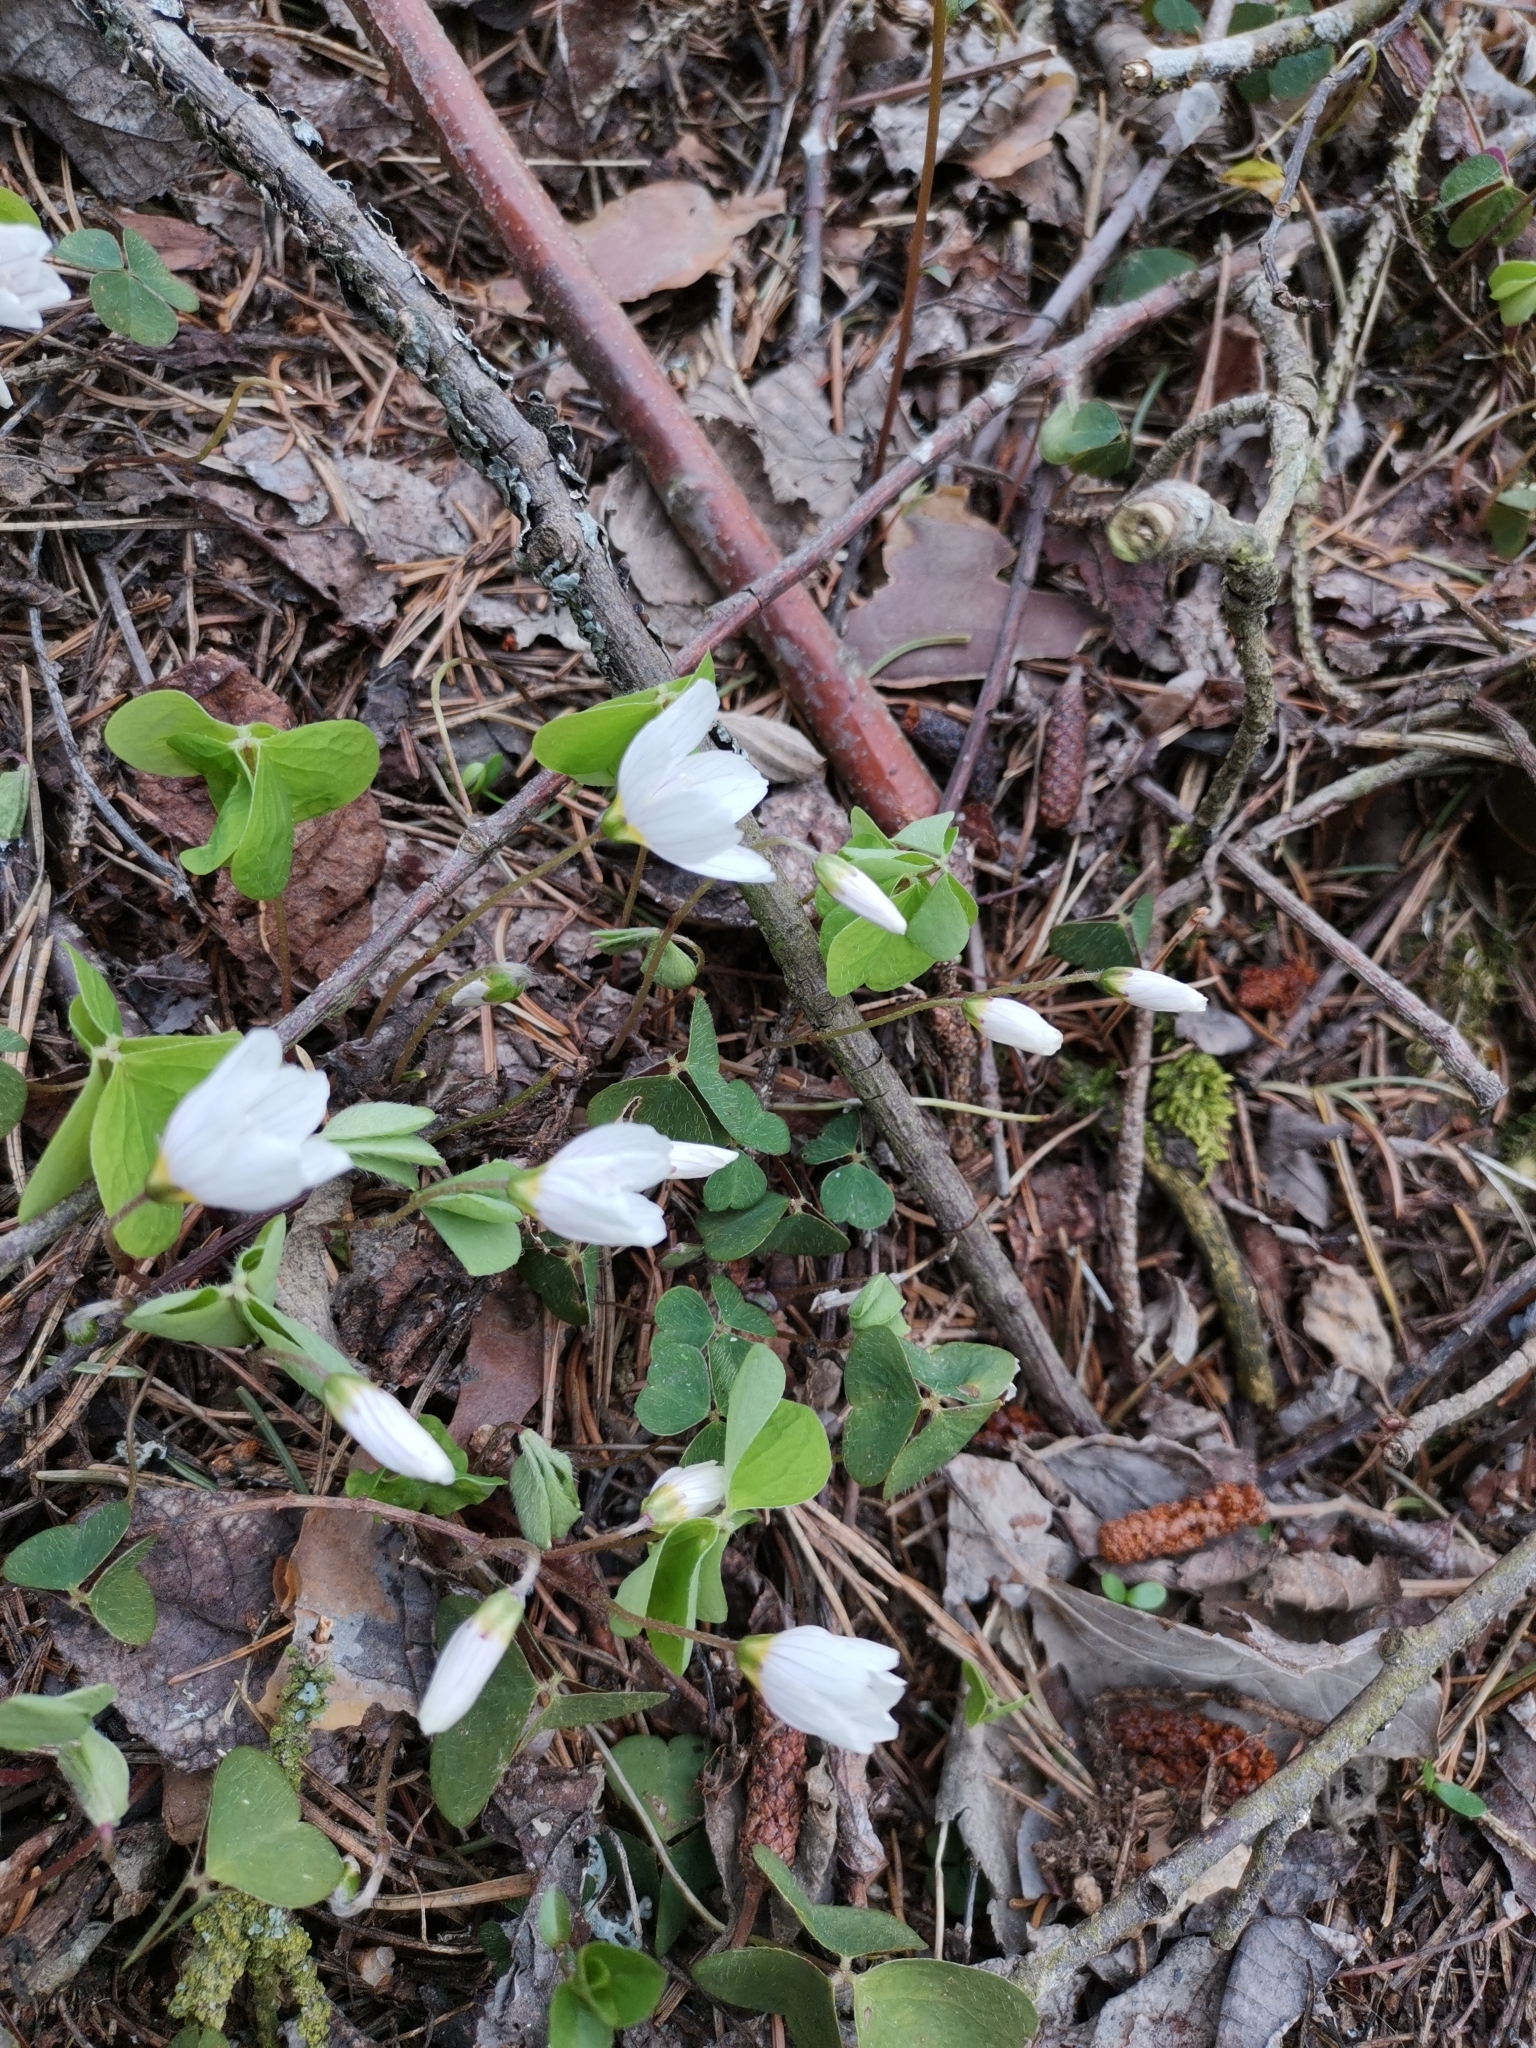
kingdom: Plantae
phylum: Tracheophyta
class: Magnoliopsida
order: Oxalidales
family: Oxalidaceae
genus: Oxalis
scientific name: Oxalis acetosella
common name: Wood-sorrel
